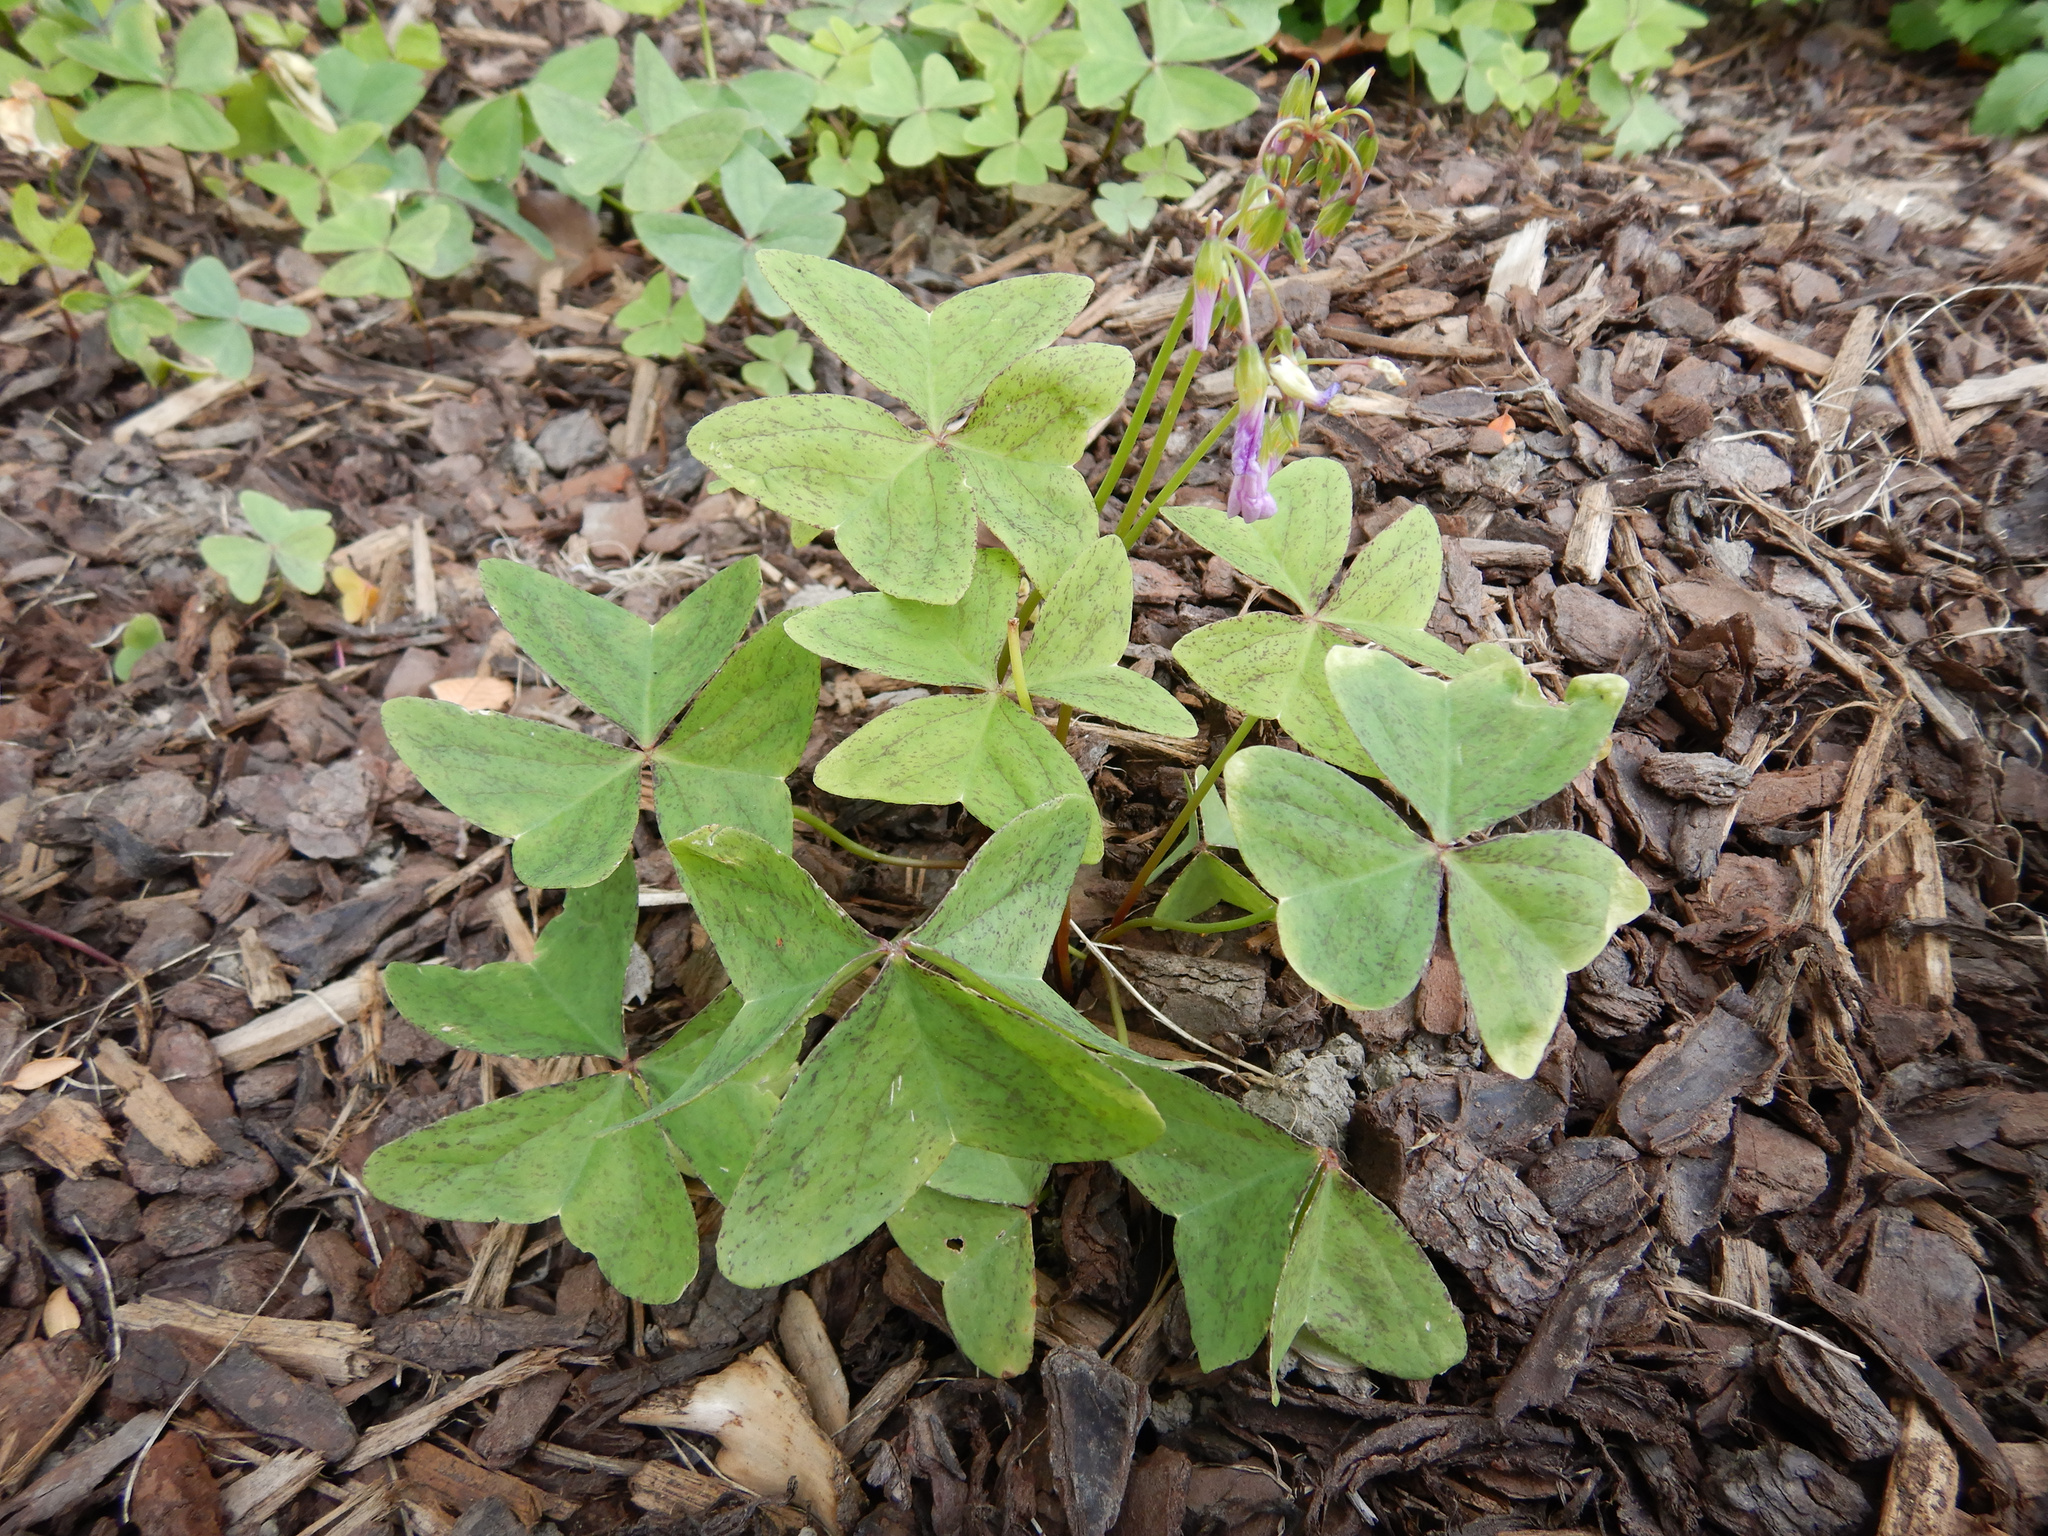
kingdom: Plantae
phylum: Tracheophyta
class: Magnoliopsida
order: Oxalidales
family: Oxalidaceae
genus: Oxalis
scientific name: Oxalis latifolia
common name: Garden pink-sorrel
